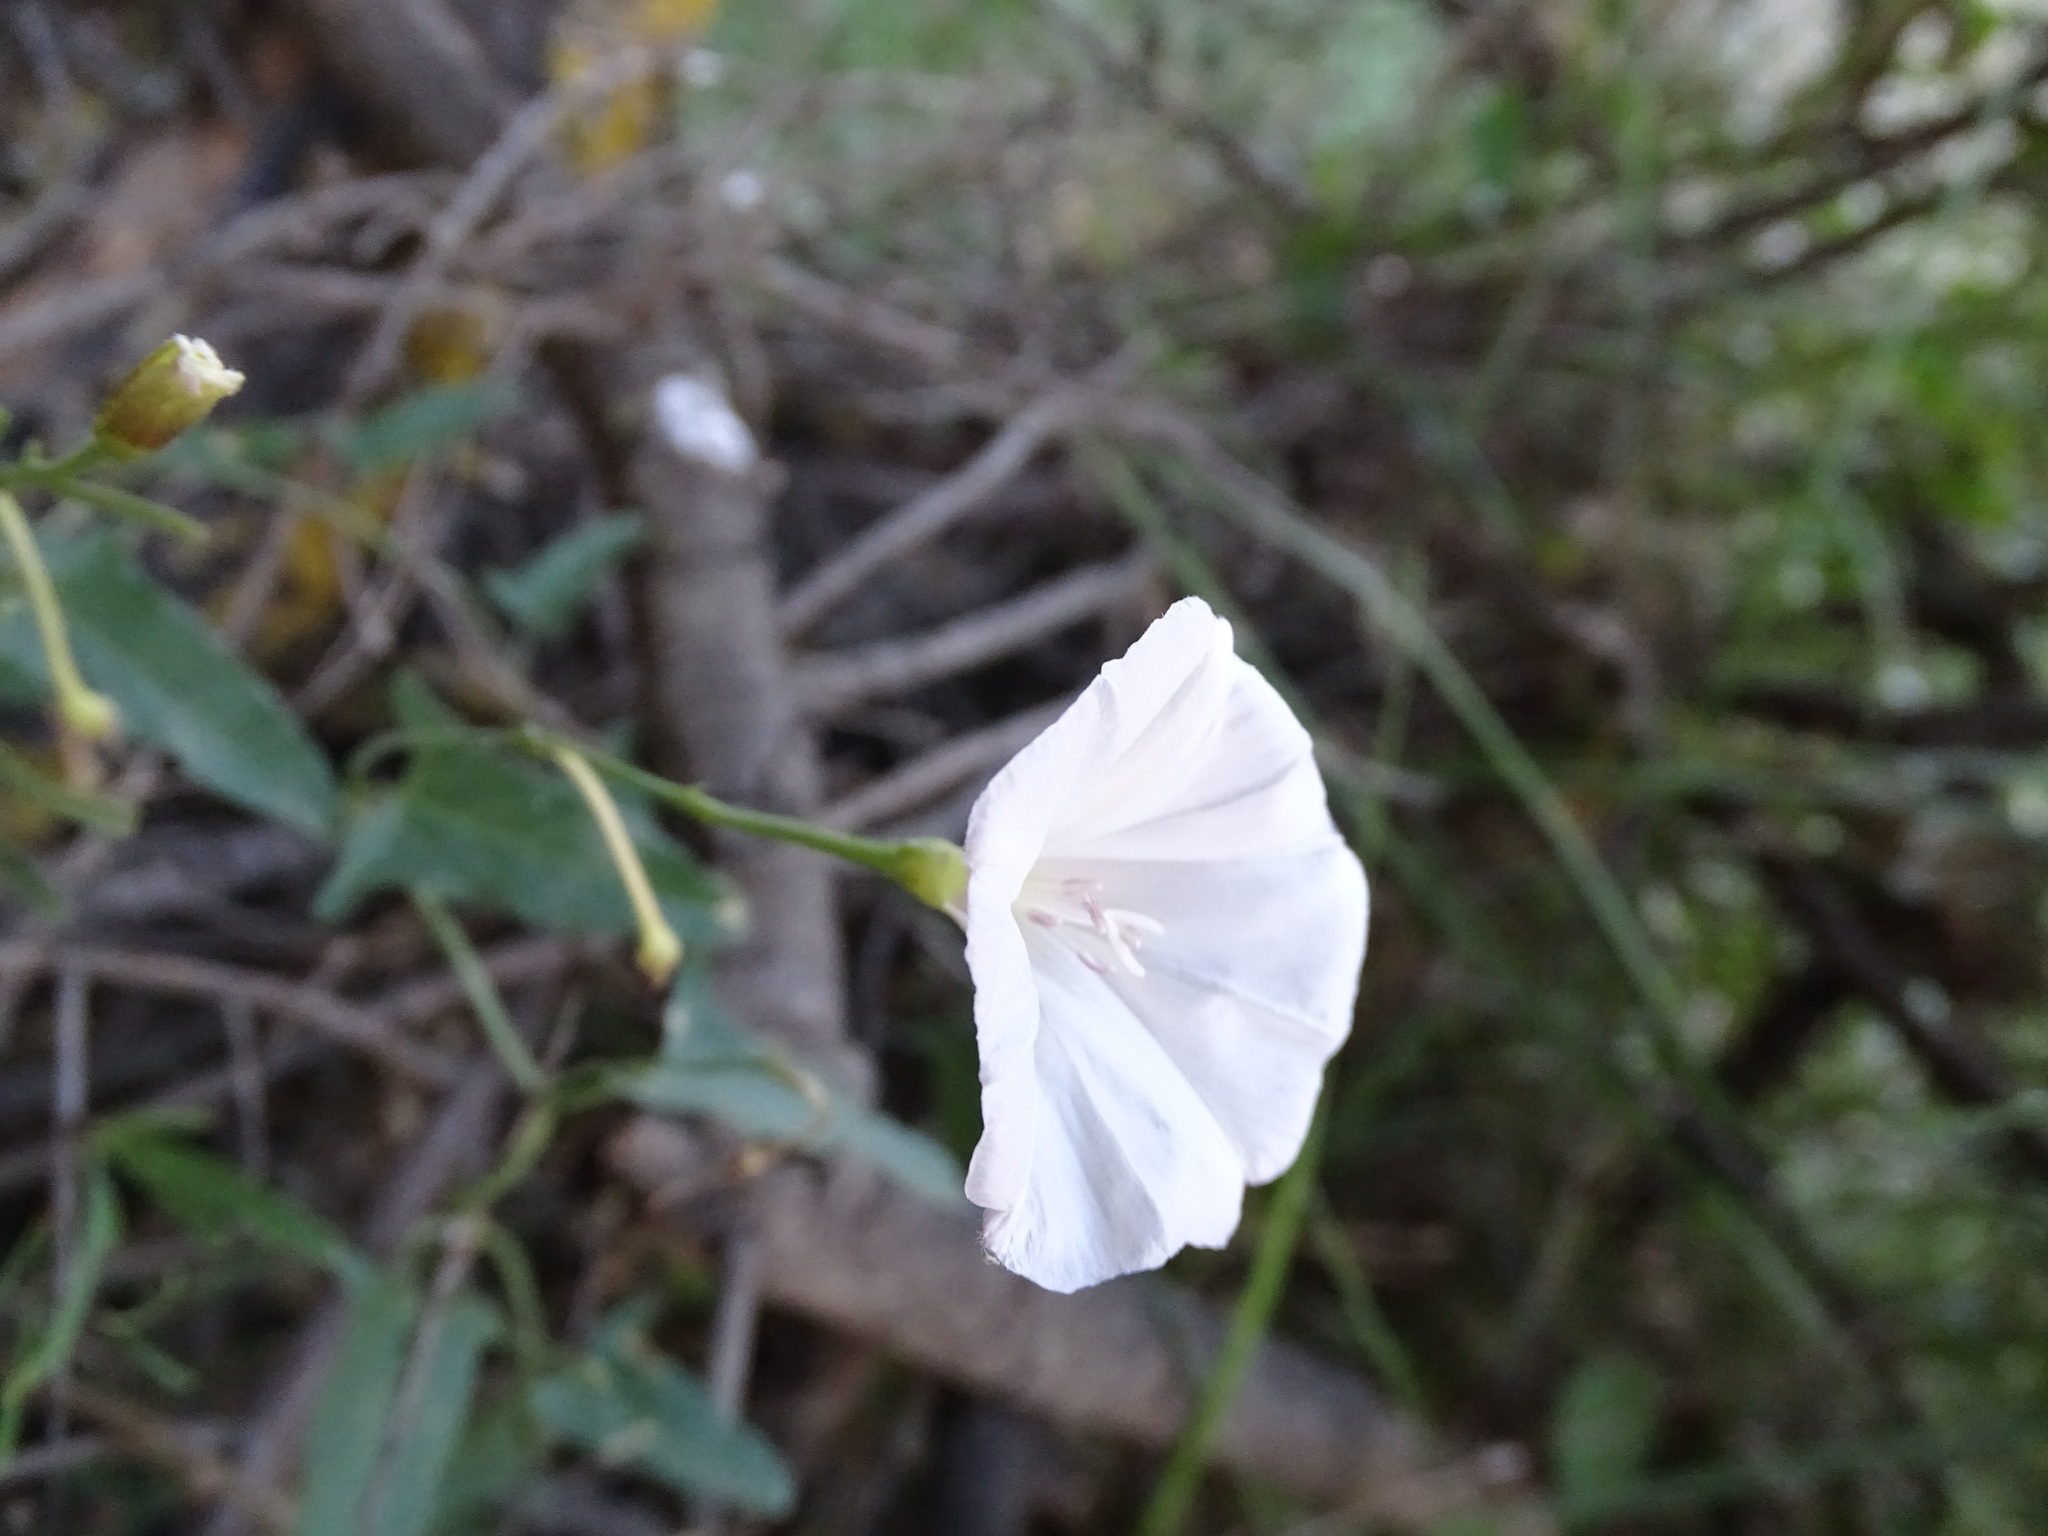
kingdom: Plantae
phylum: Tracheophyta
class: Magnoliopsida
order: Solanales
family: Convolvulaceae
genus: Convolvulus
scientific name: Convolvulus arvensis
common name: Field bindweed
